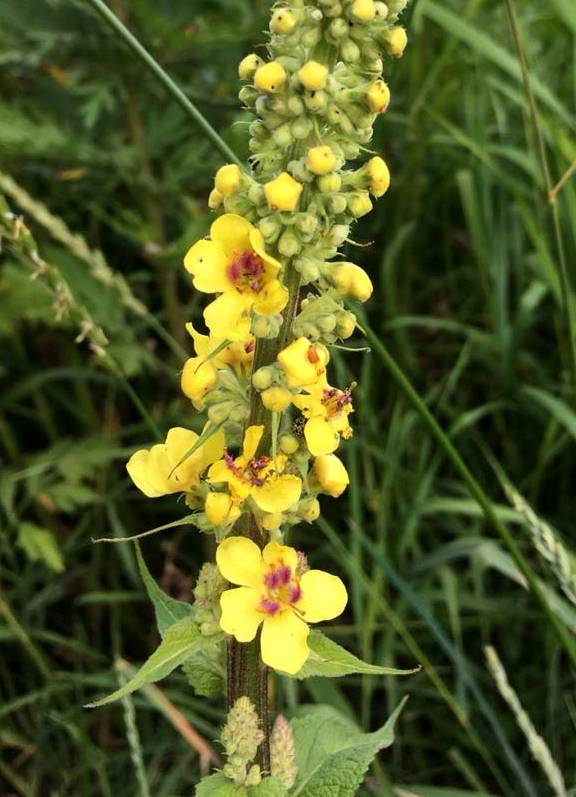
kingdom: Plantae
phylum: Tracheophyta
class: Magnoliopsida
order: Lamiales
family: Scrophulariaceae
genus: Verbascum
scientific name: Verbascum nigrum
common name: Dark mullein
